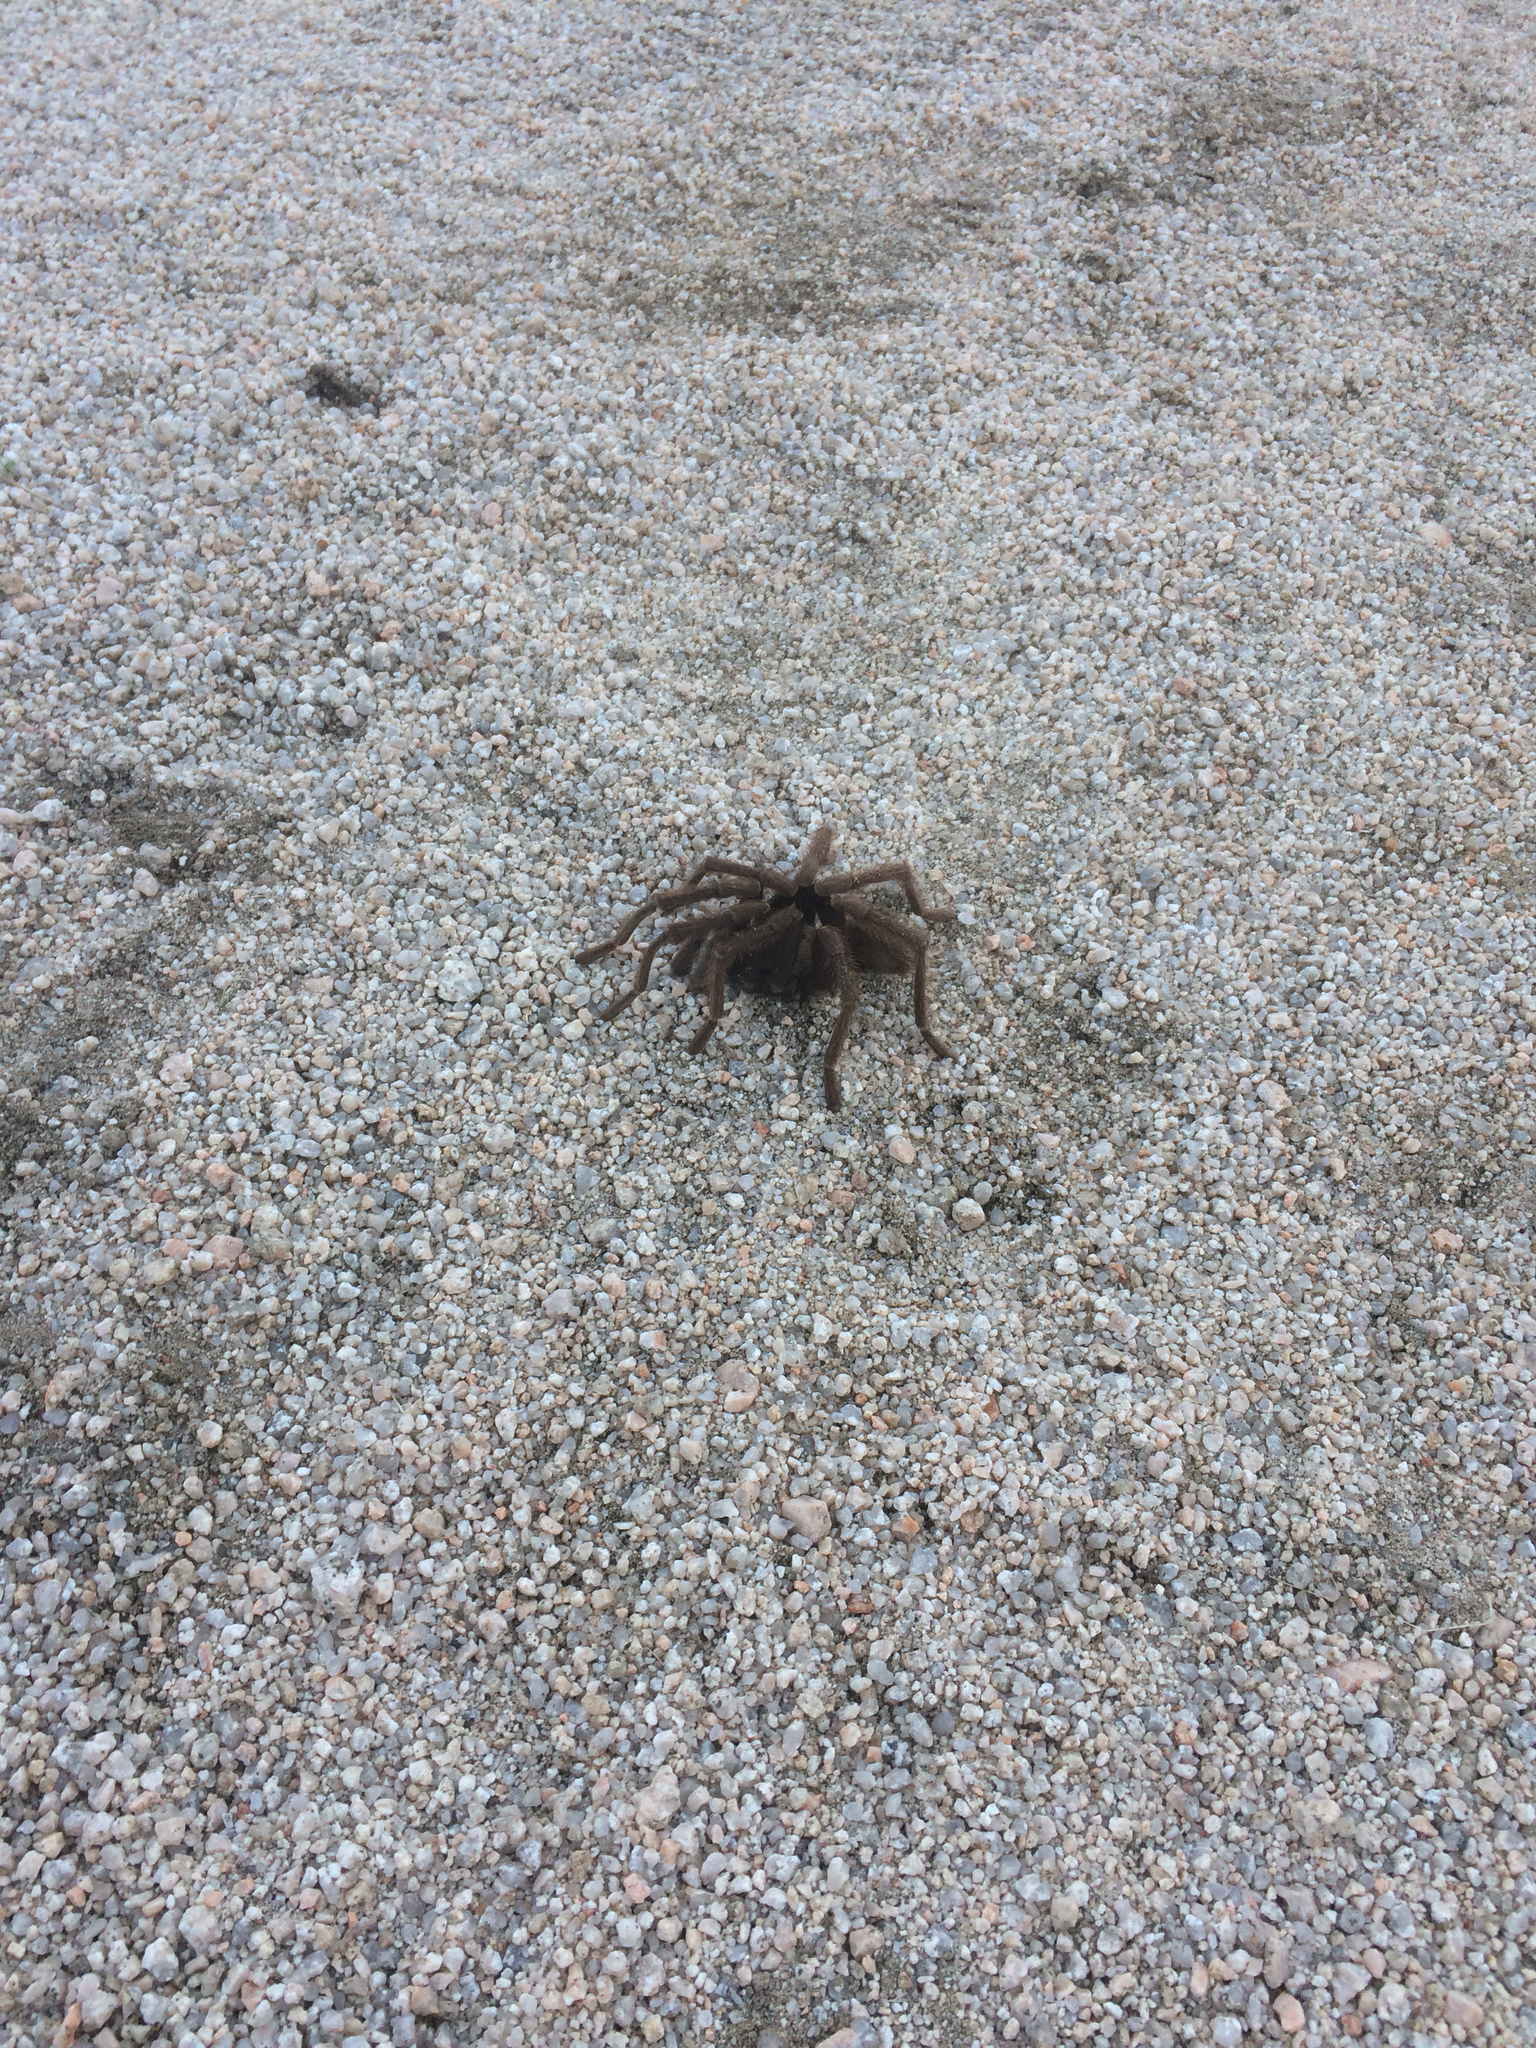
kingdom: Animalia
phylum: Arthropoda
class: Arachnida
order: Araneae
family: Theraphosidae
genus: Aphonopelma
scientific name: Aphonopelma iodius
